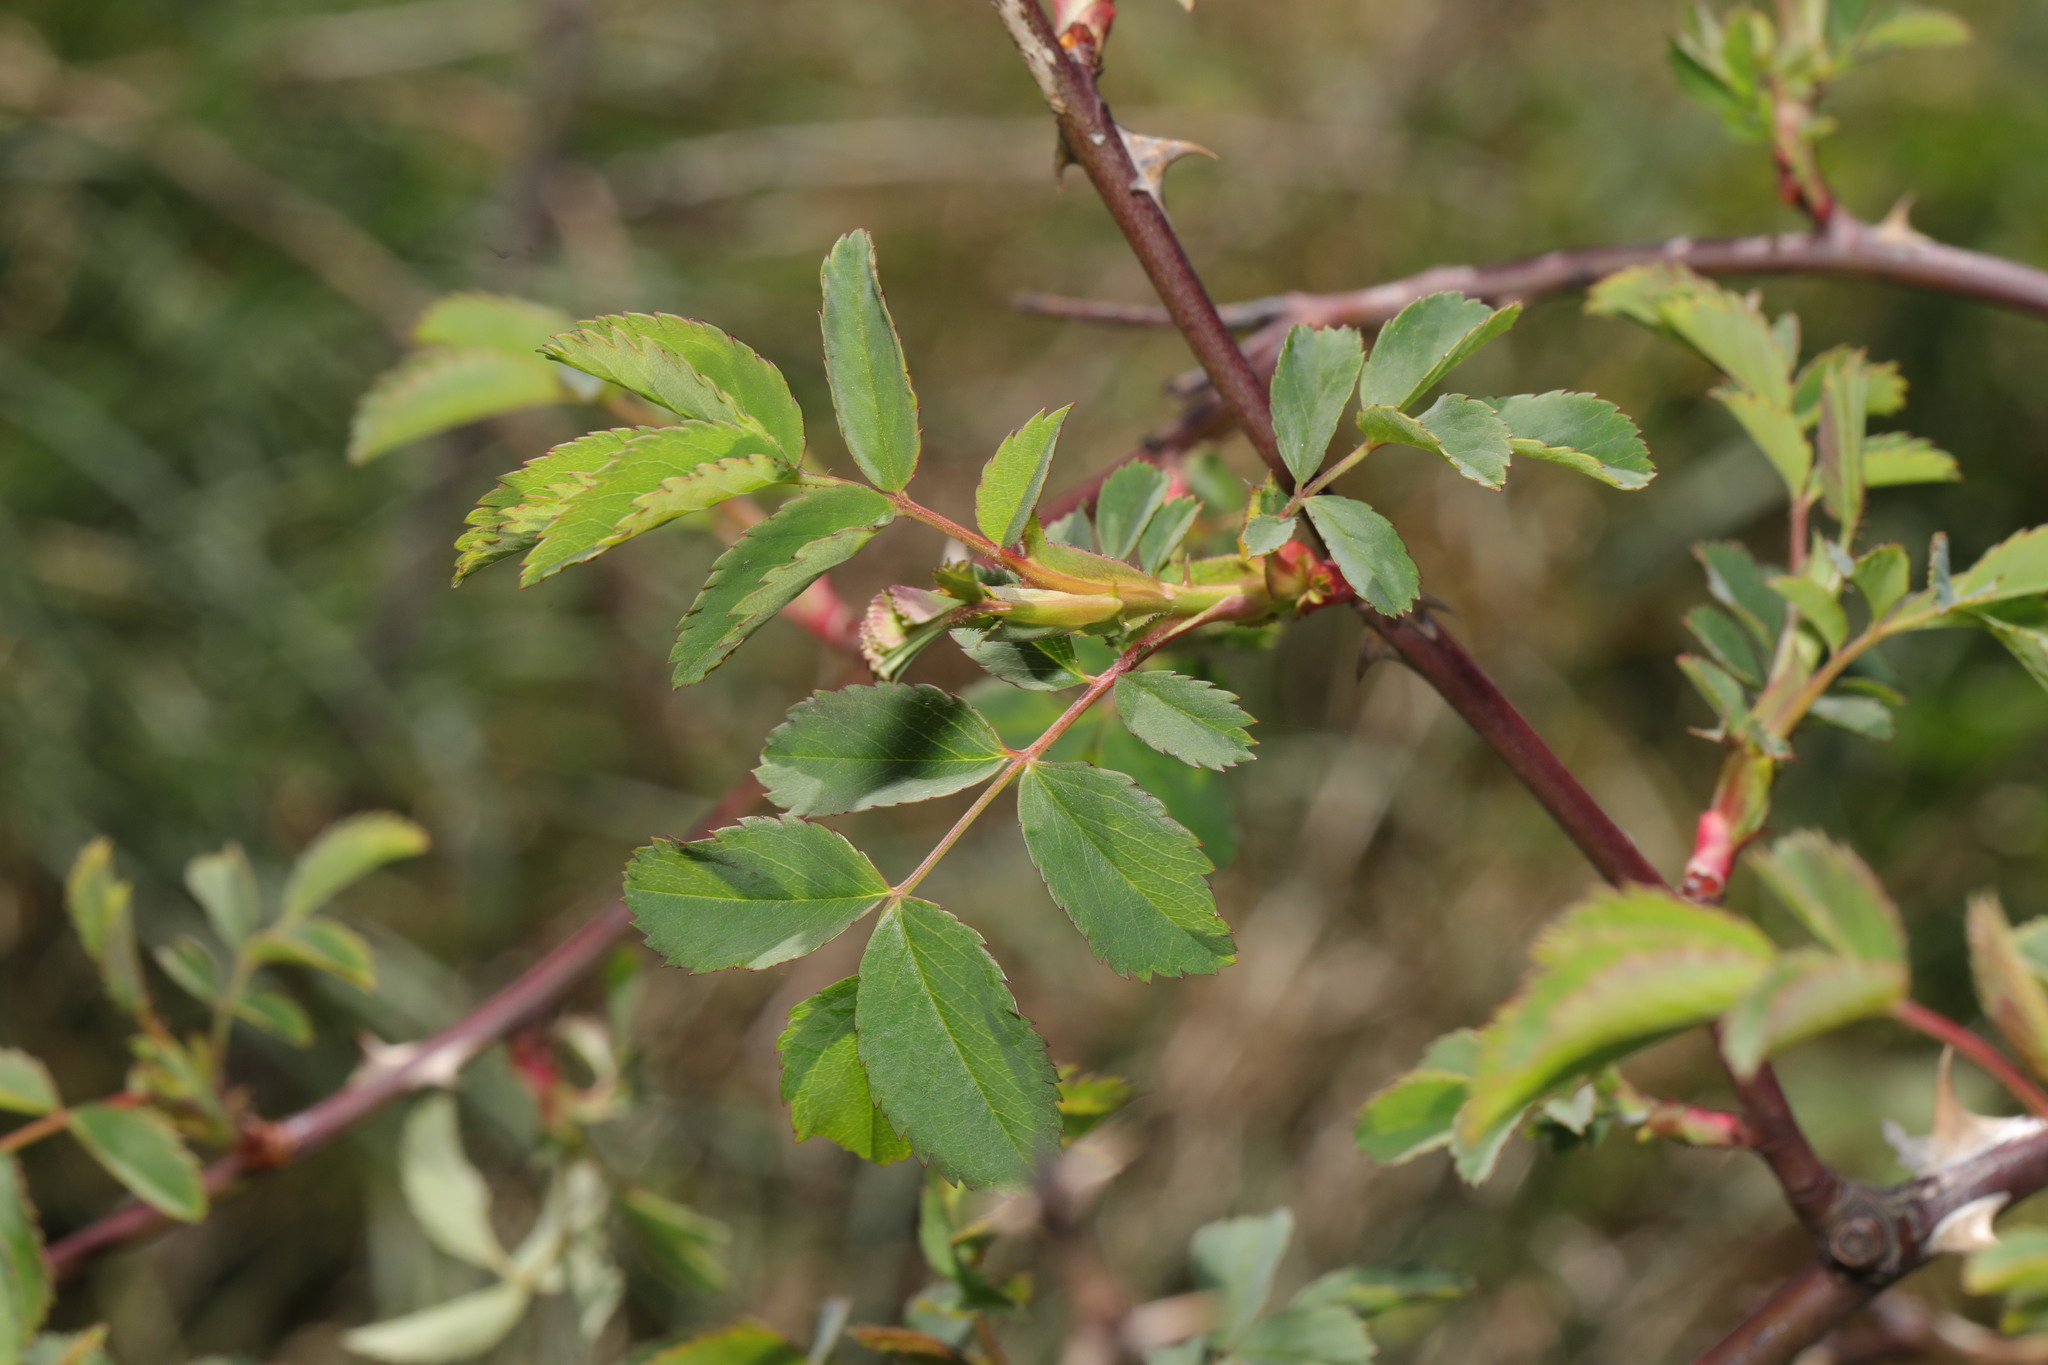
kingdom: Plantae
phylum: Tracheophyta
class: Magnoliopsida
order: Rosales
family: Rosaceae
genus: Rosa
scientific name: Rosa canina
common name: Dog rose
